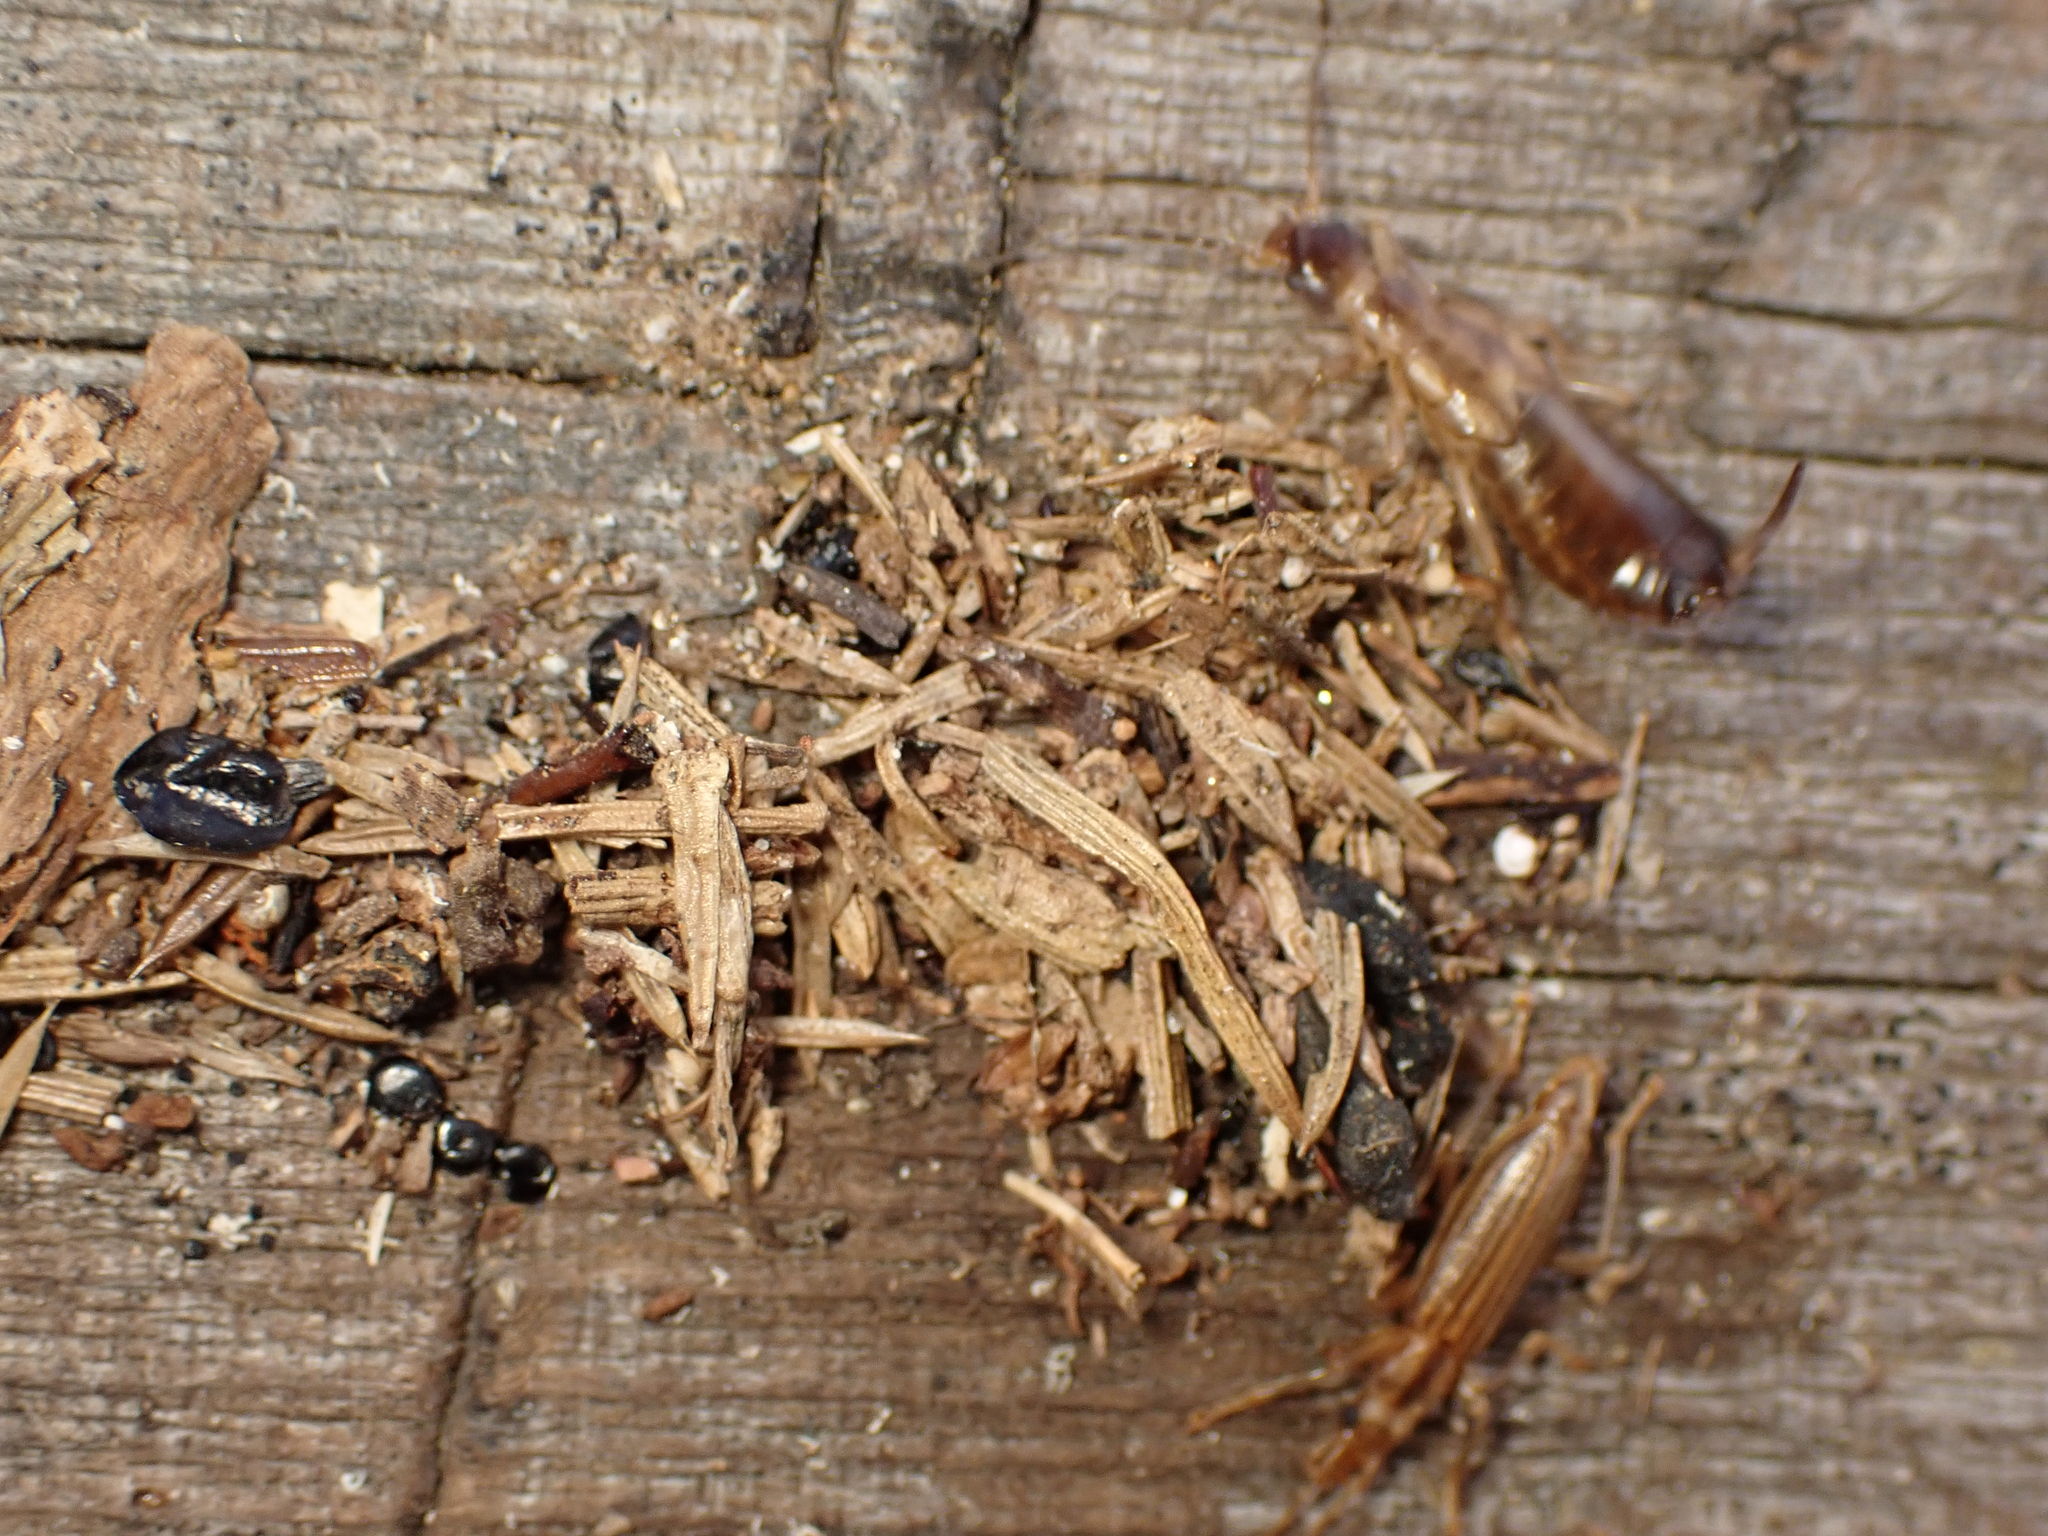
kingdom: Animalia
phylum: Arthropoda
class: Insecta
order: Dermaptera
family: Forficulidae
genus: Forficula
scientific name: Forficula
